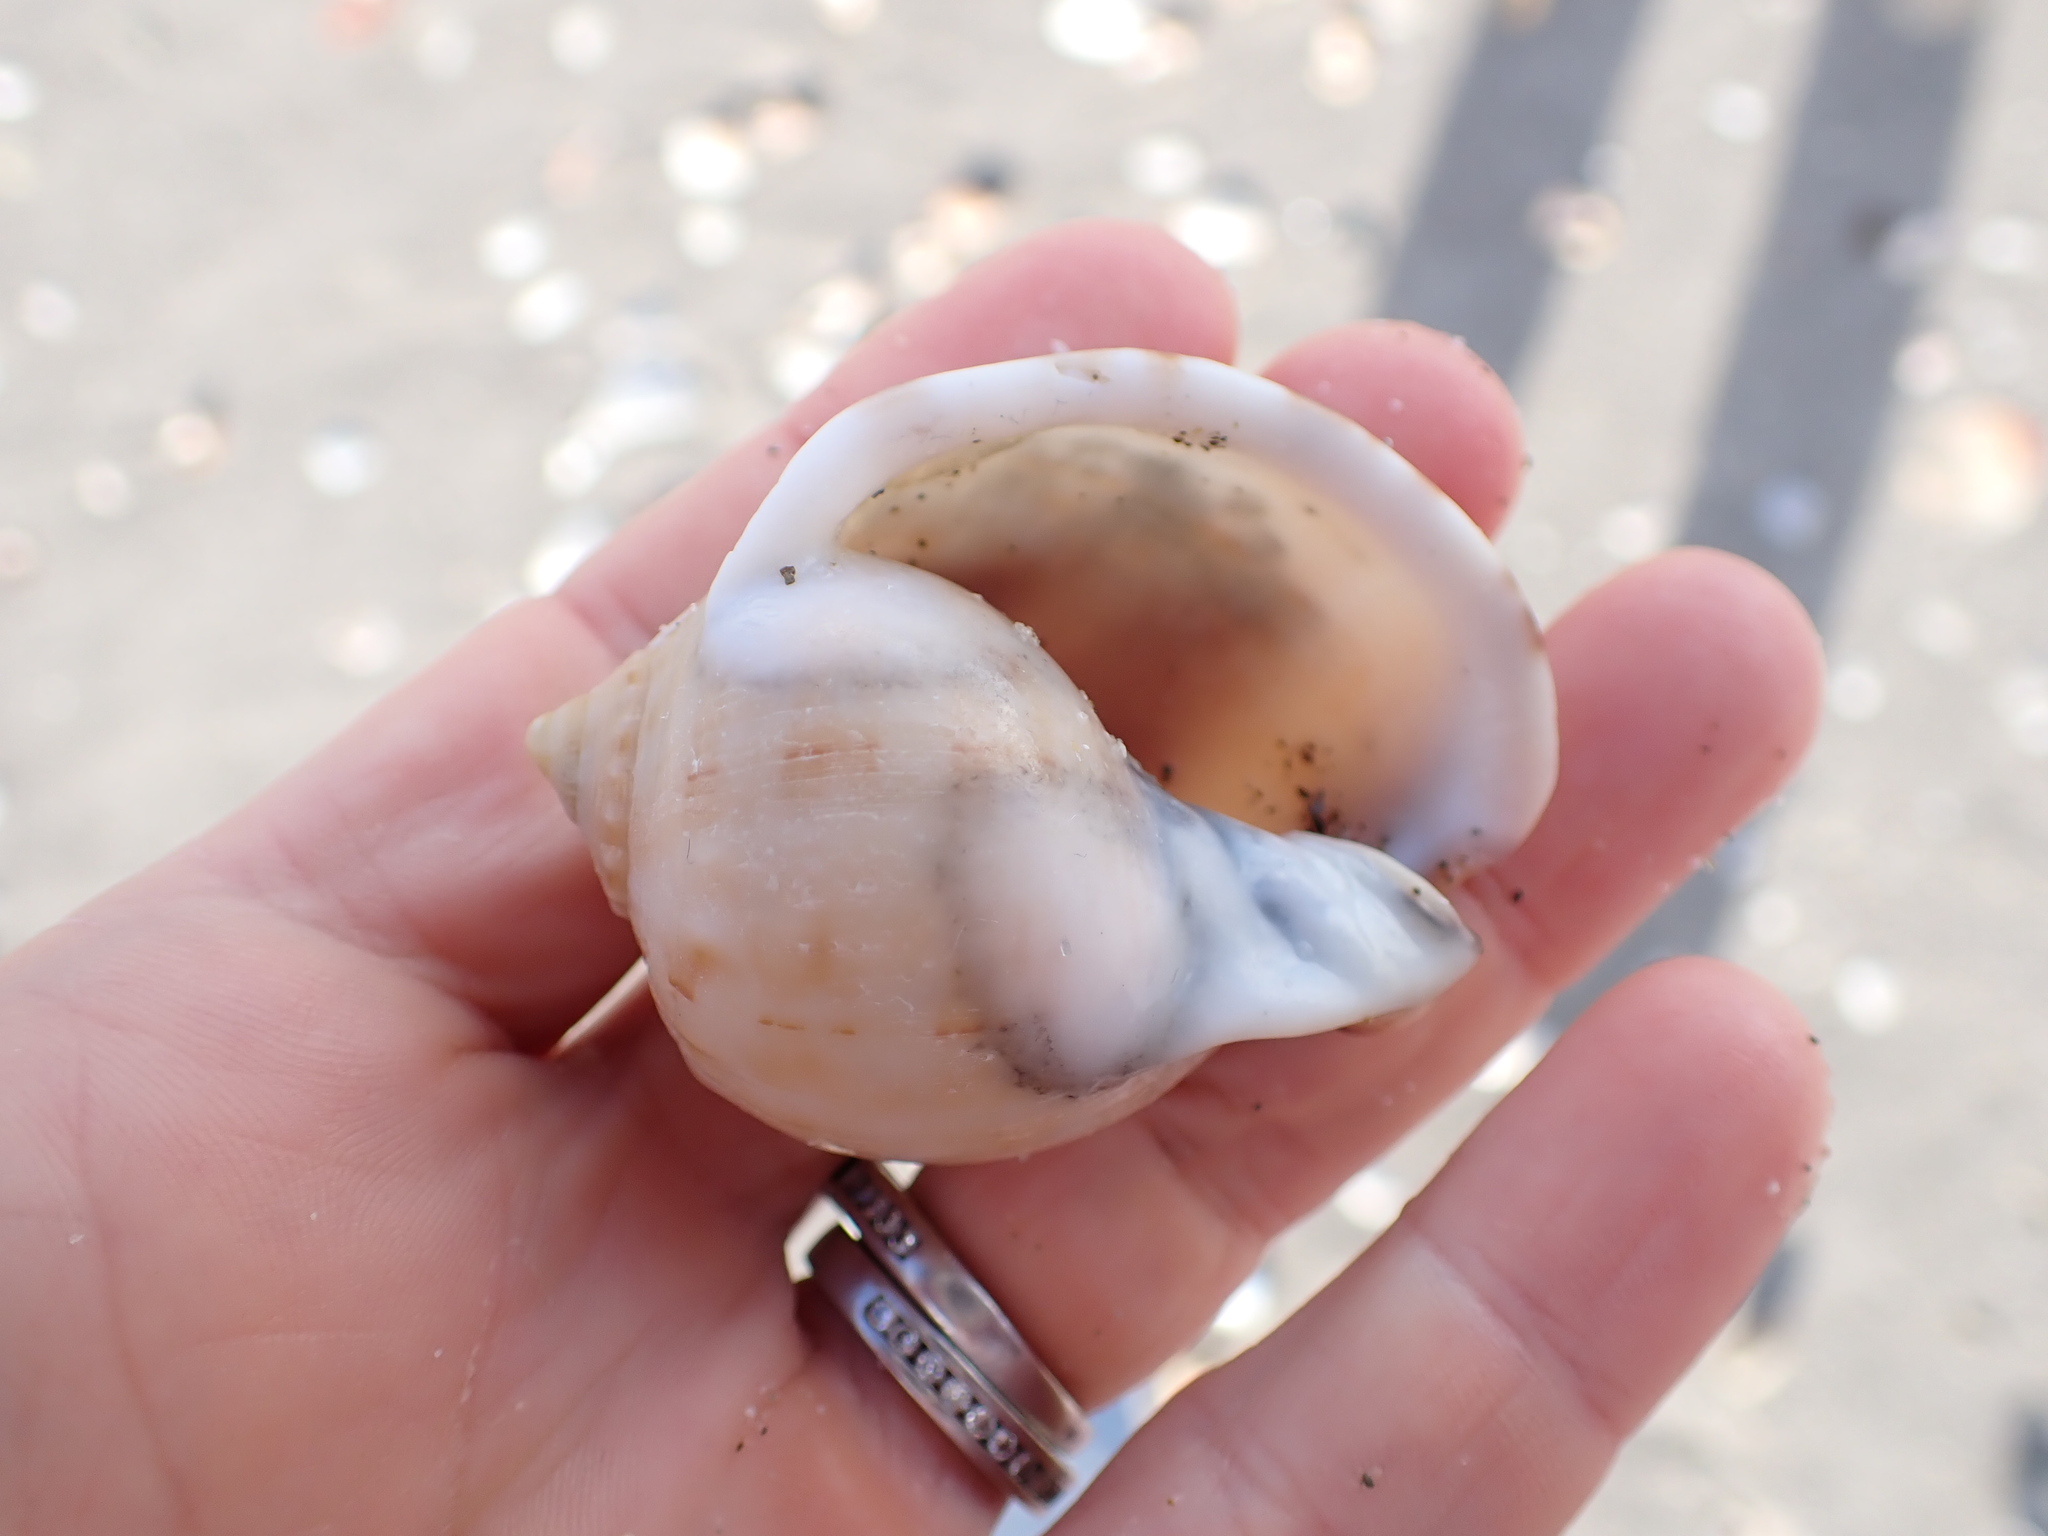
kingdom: Animalia
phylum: Mollusca
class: Gastropoda
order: Littorinimorpha
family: Cassidae
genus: Semicassis
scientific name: Semicassis pyrum
